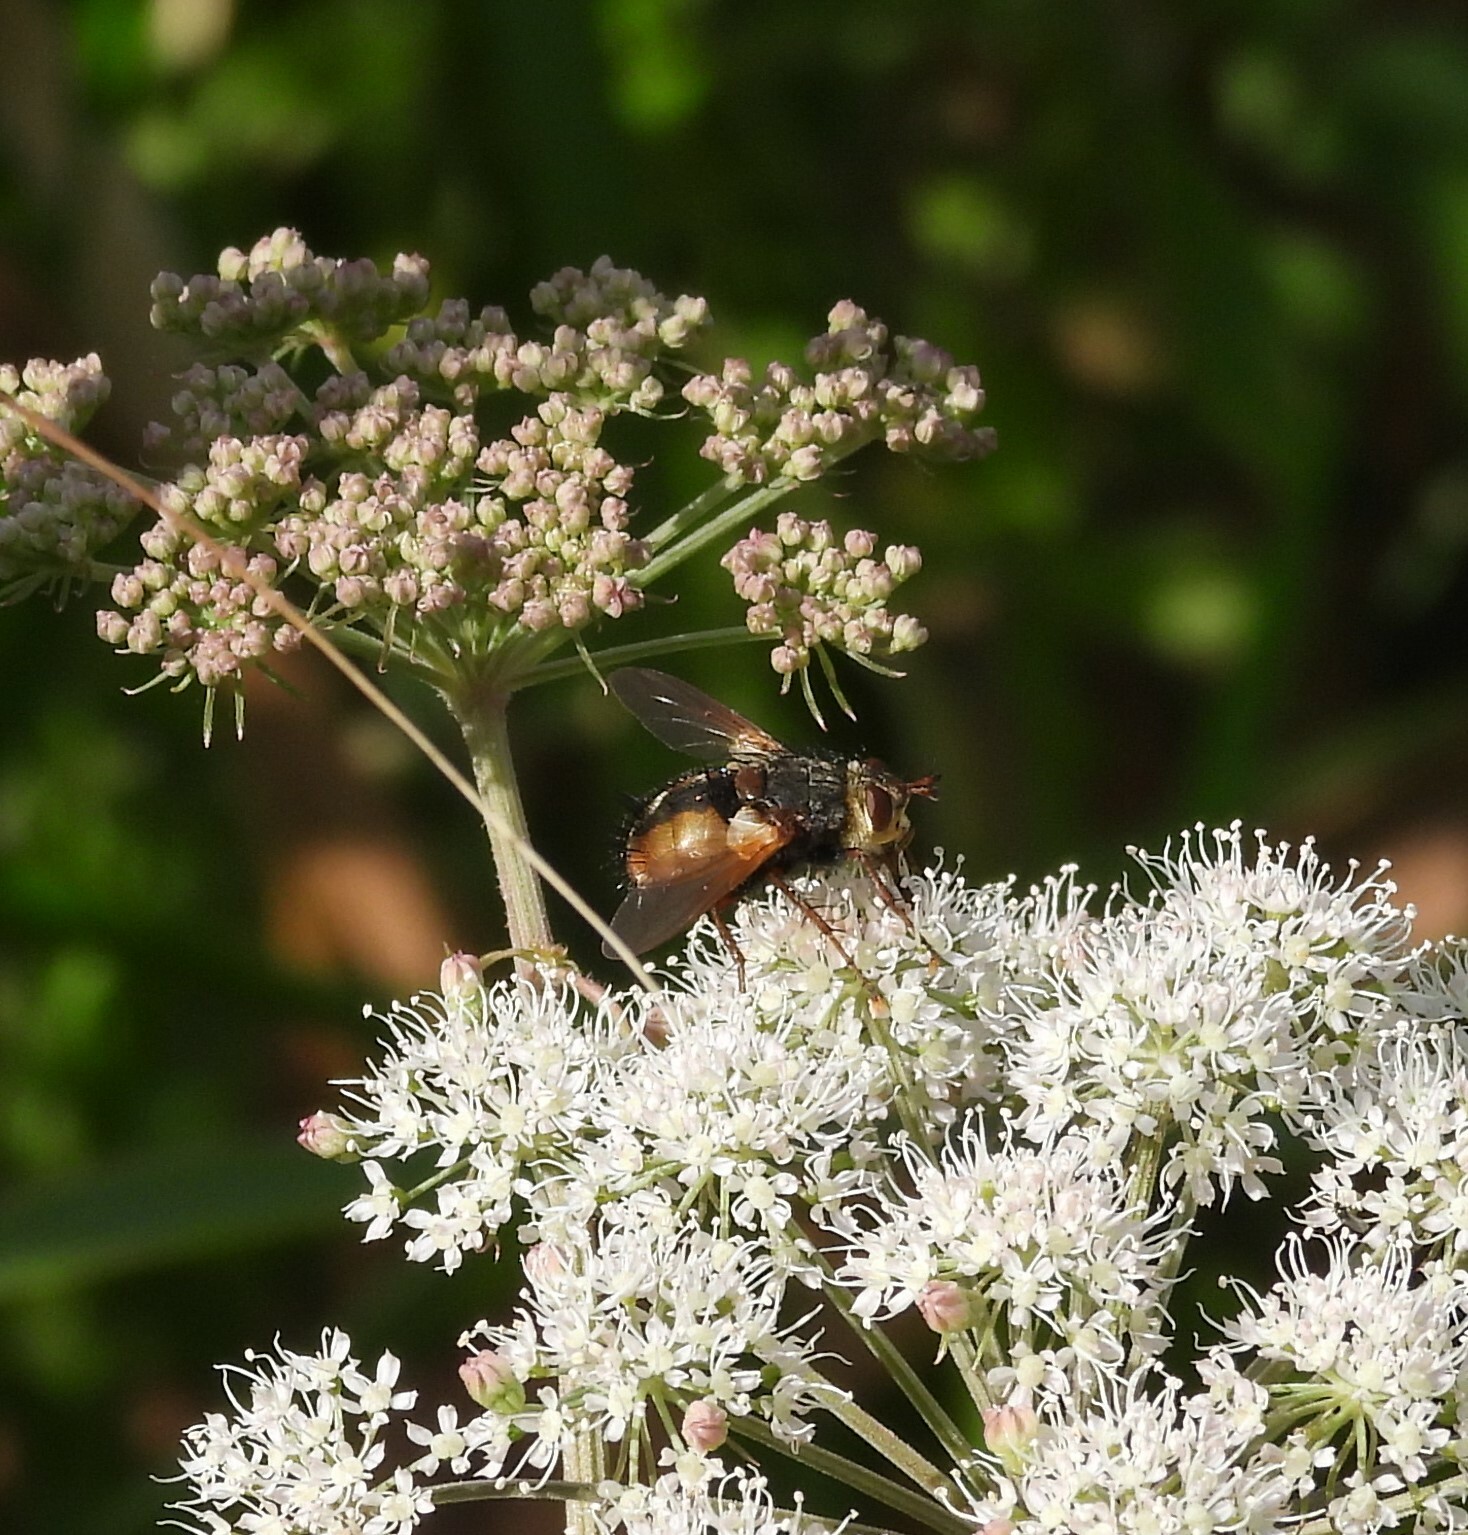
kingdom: Animalia
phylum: Arthropoda
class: Insecta
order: Diptera
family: Tachinidae
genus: Tachina
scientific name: Tachina fera
